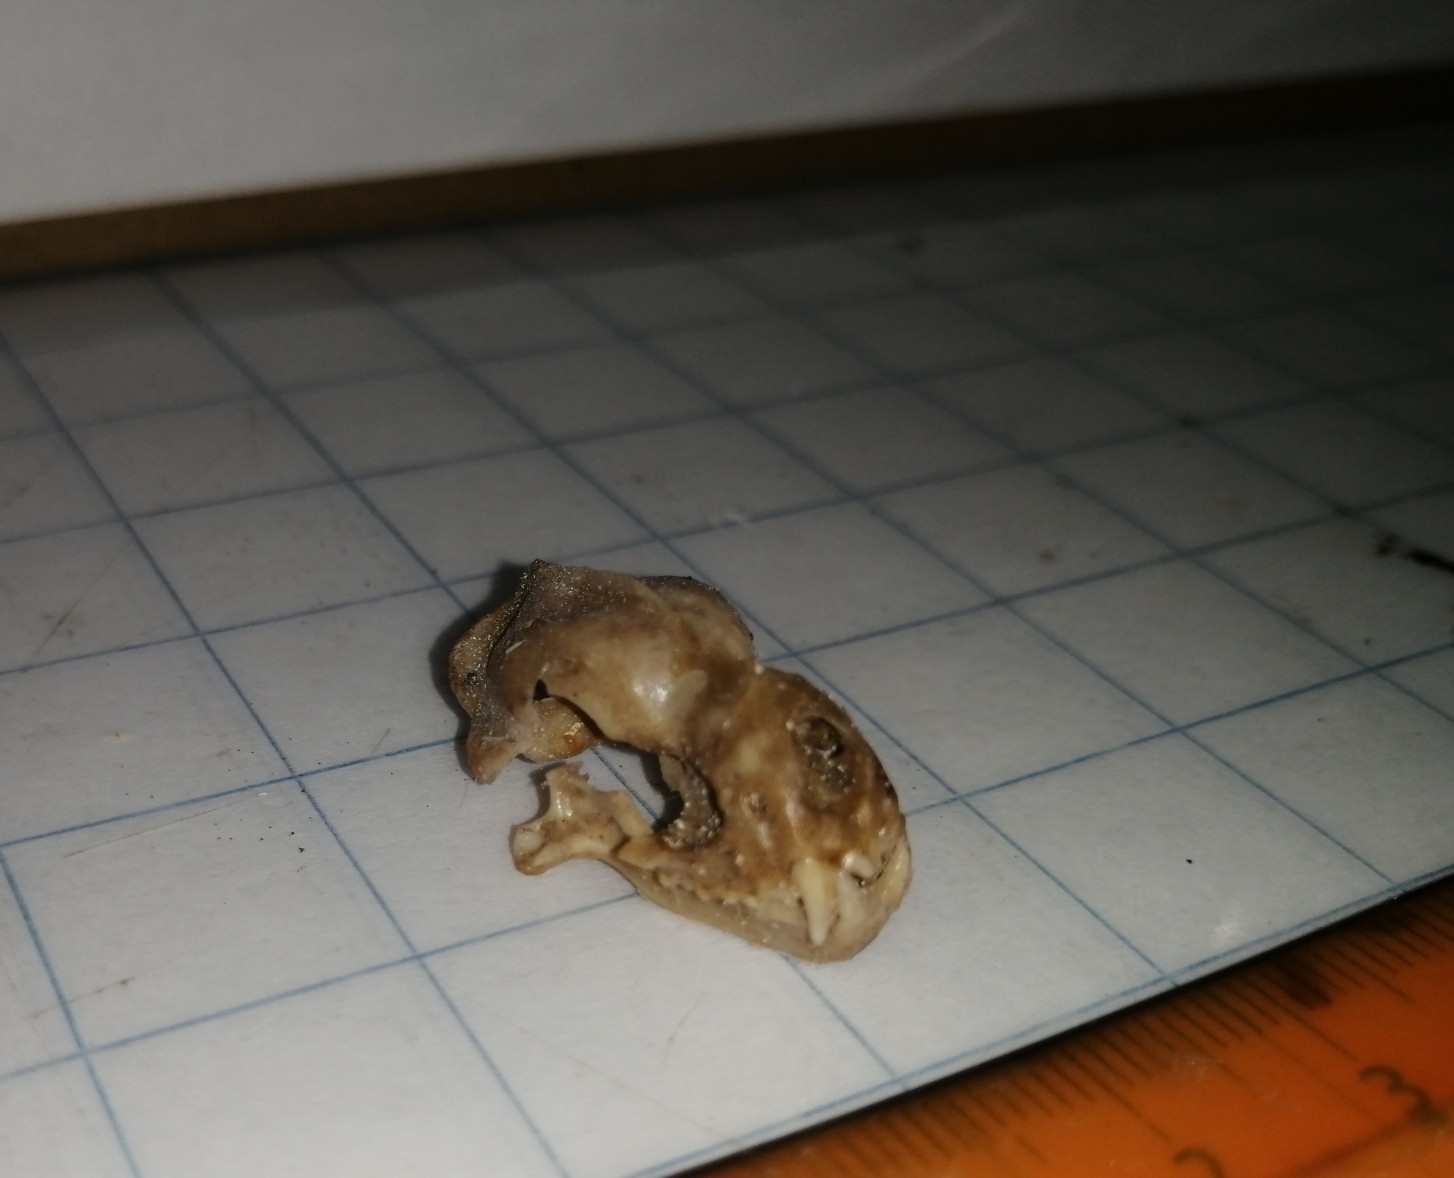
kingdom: Animalia
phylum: Chordata
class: Mammalia
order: Chiroptera
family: Phyllostomidae
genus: Artibeus
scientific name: Artibeus lituratus
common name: Great fruit-eating bat
